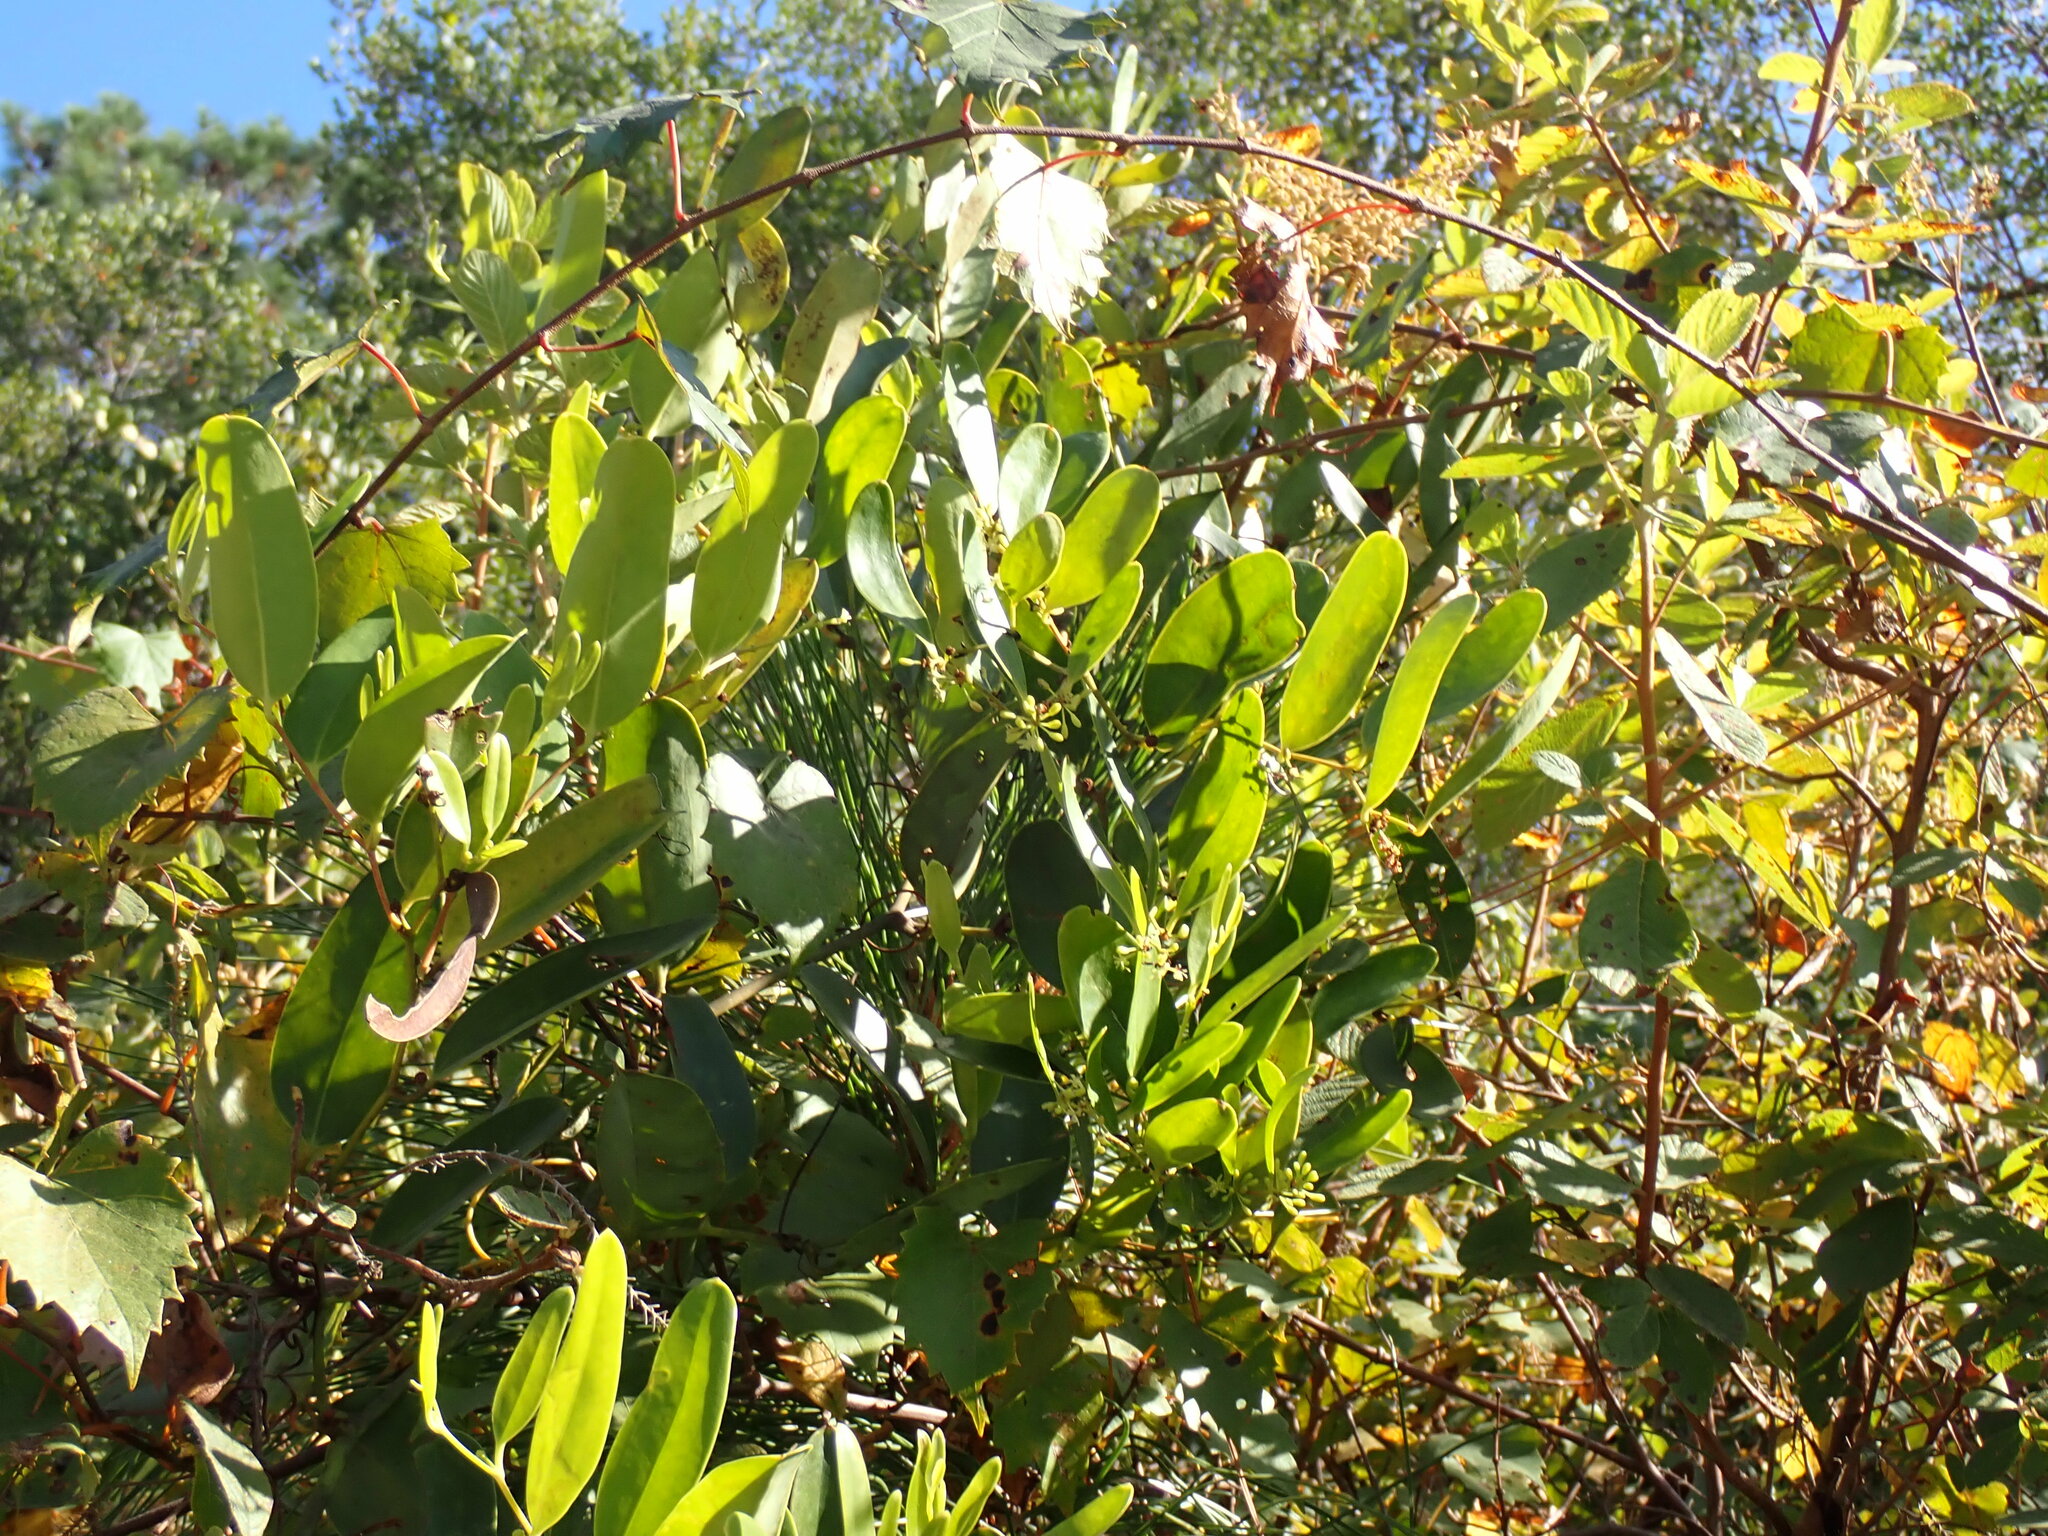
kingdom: Plantae
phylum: Tracheophyta
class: Liliopsida
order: Liliales
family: Smilacaceae
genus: Smilax
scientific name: Smilax laurifolia
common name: Bamboovine
